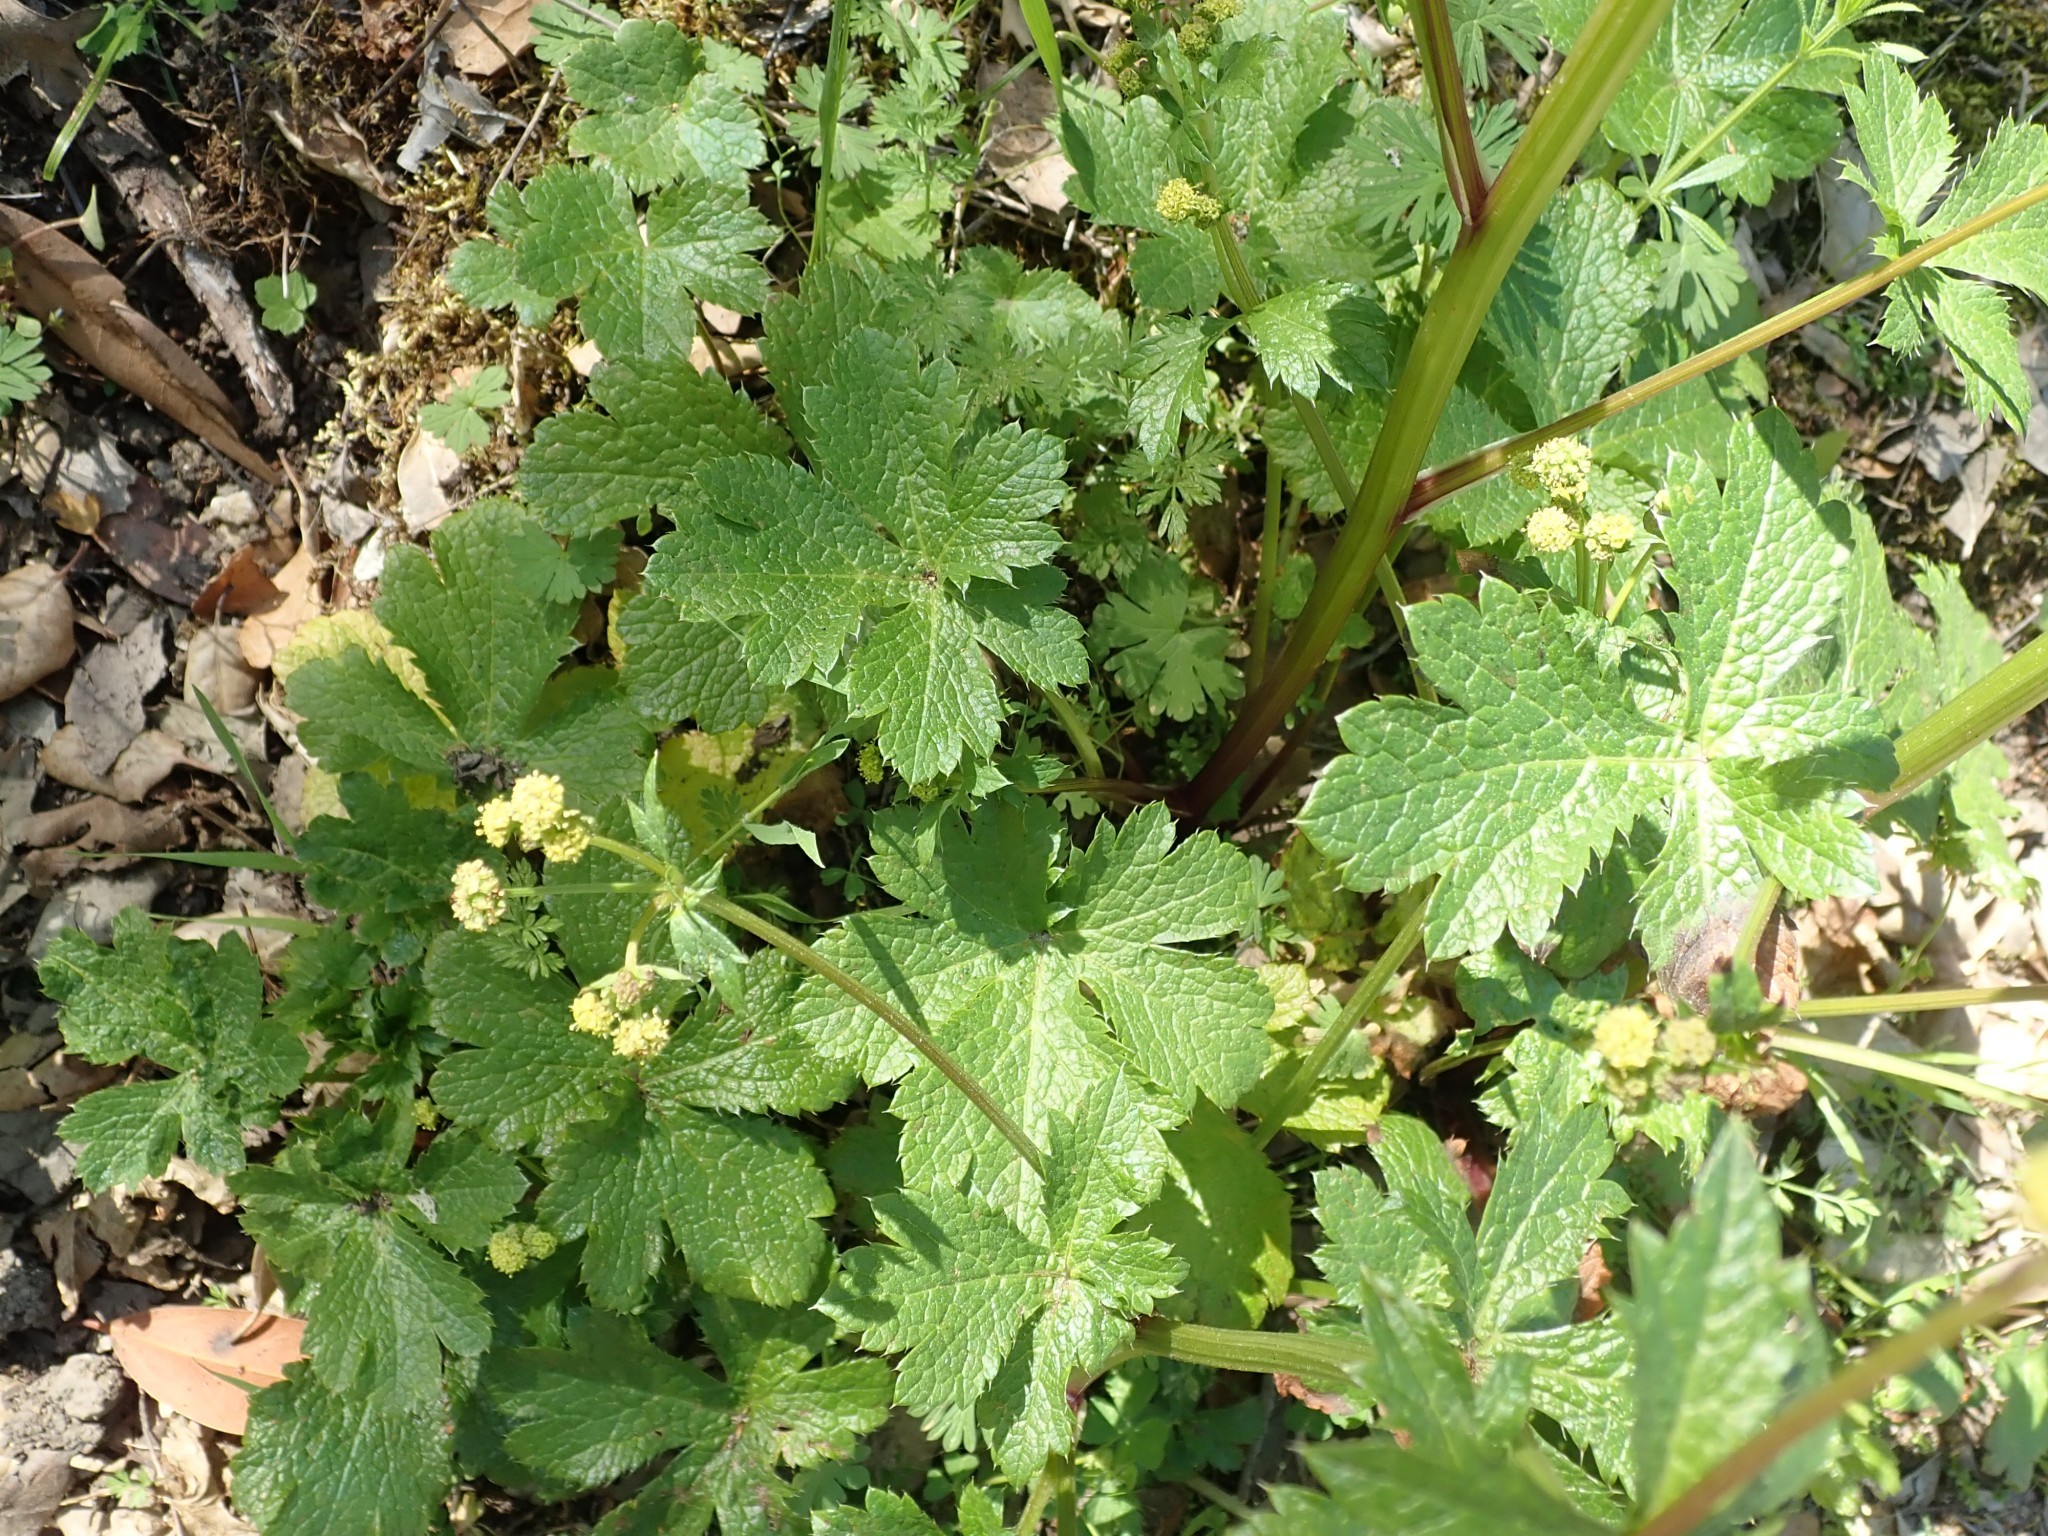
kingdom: Plantae
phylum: Tracheophyta
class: Magnoliopsida
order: Apiales
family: Apiaceae
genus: Sanicula
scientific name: Sanicula crassicaulis
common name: Western snakeroot
